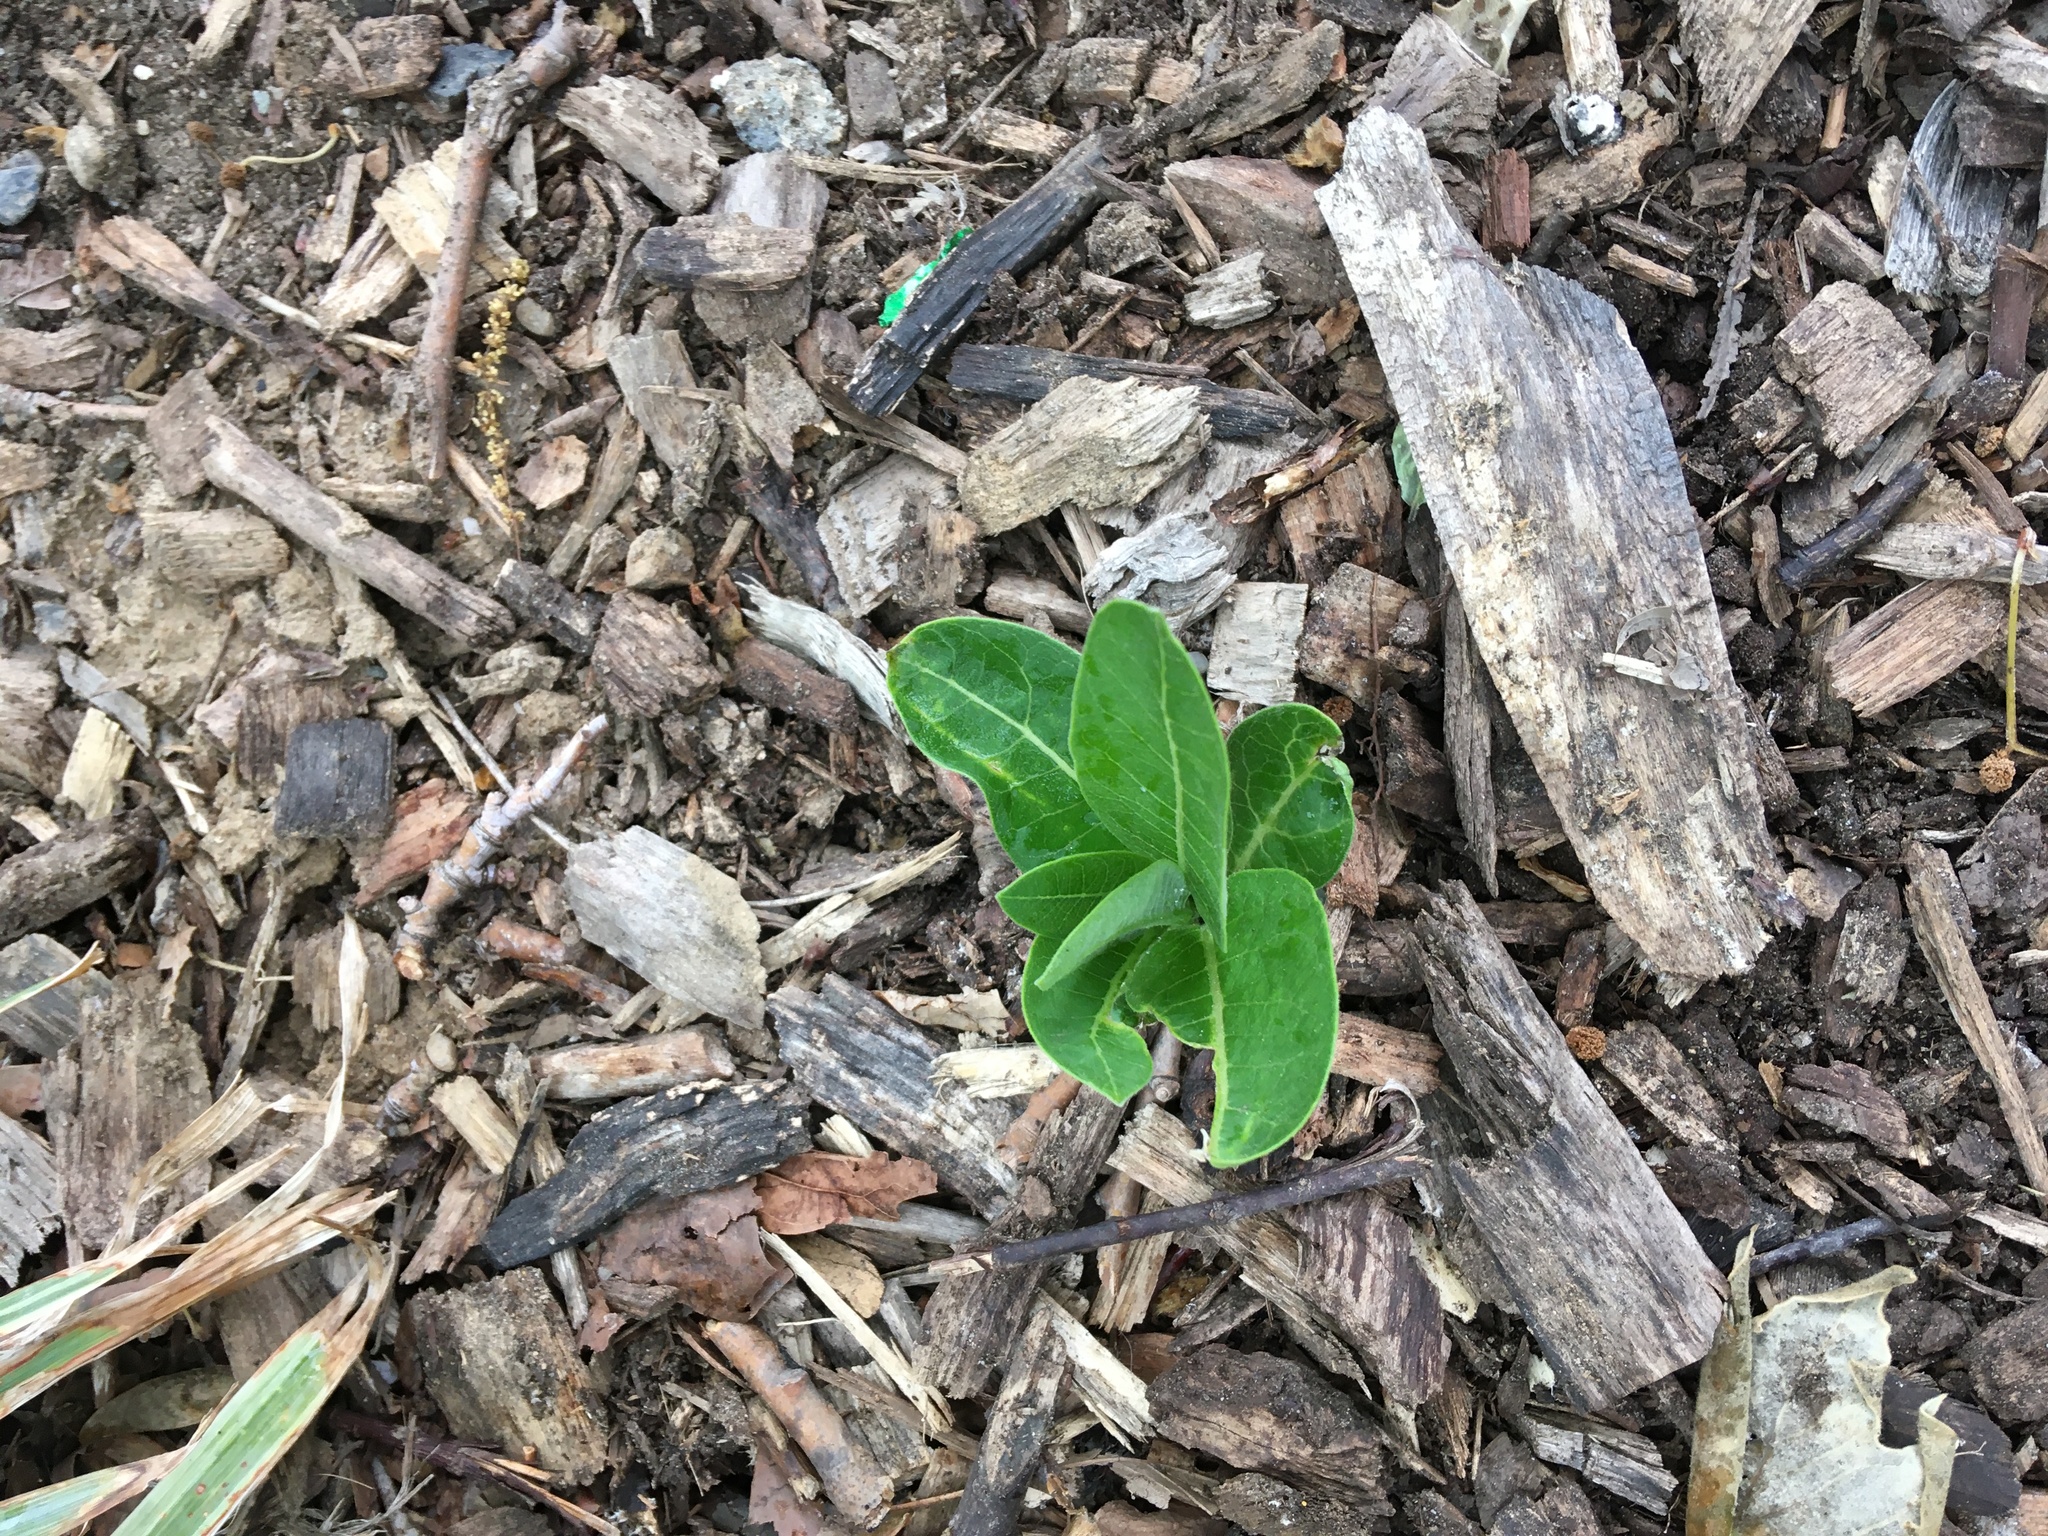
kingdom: Plantae
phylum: Tracheophyta
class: Magnoliopsida
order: Gentianales
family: Apocynaceae
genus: Asclepias
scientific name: Asclepias syriaca
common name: Common milkweed
